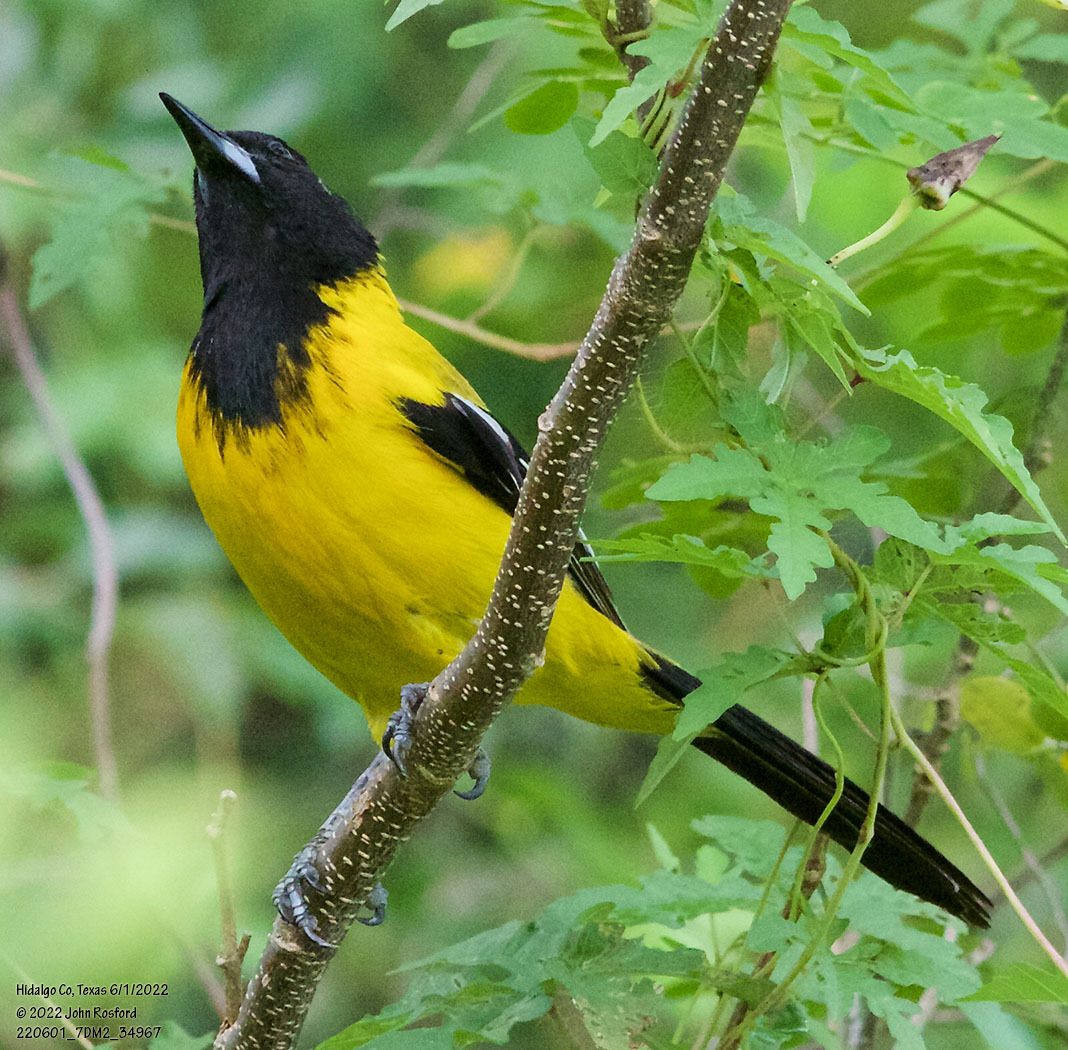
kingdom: Animalia
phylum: Chordata
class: Aves
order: Passeriformes
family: Icteridae
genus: Icterus
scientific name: Icterus graduacauda
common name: Audubon's oriole
